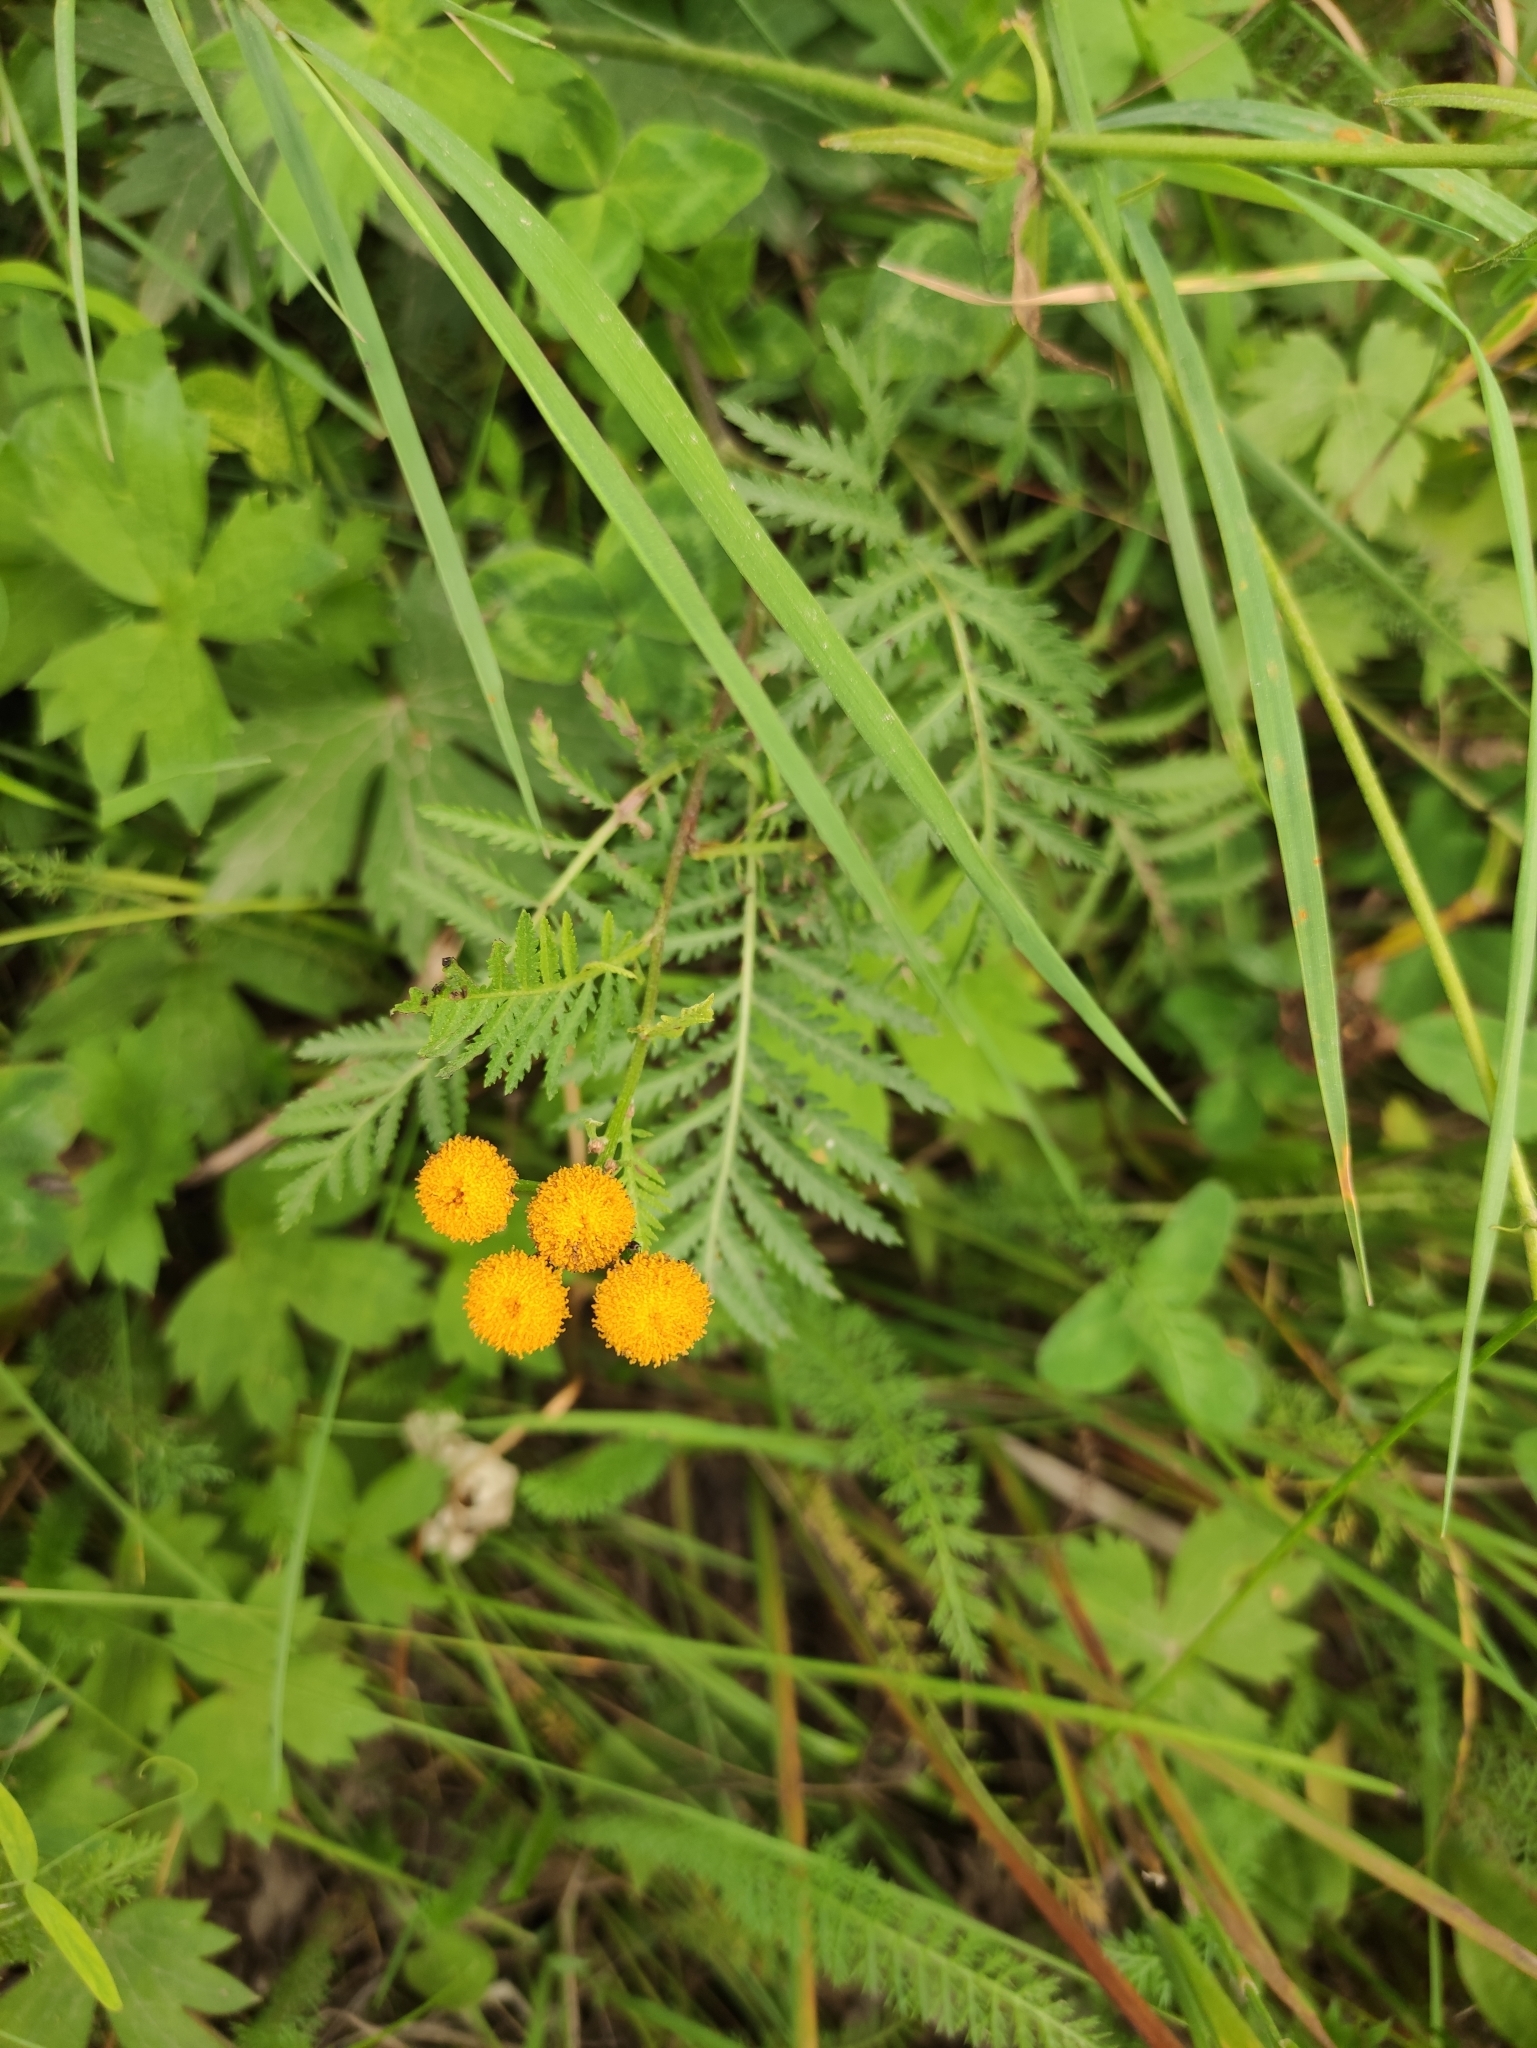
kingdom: Plantae
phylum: Tracheophyta
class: Magnoliopsida
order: Asterales
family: Asteraceae
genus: Tanacetum
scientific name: Tanacetum vulgare
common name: Common tansy
